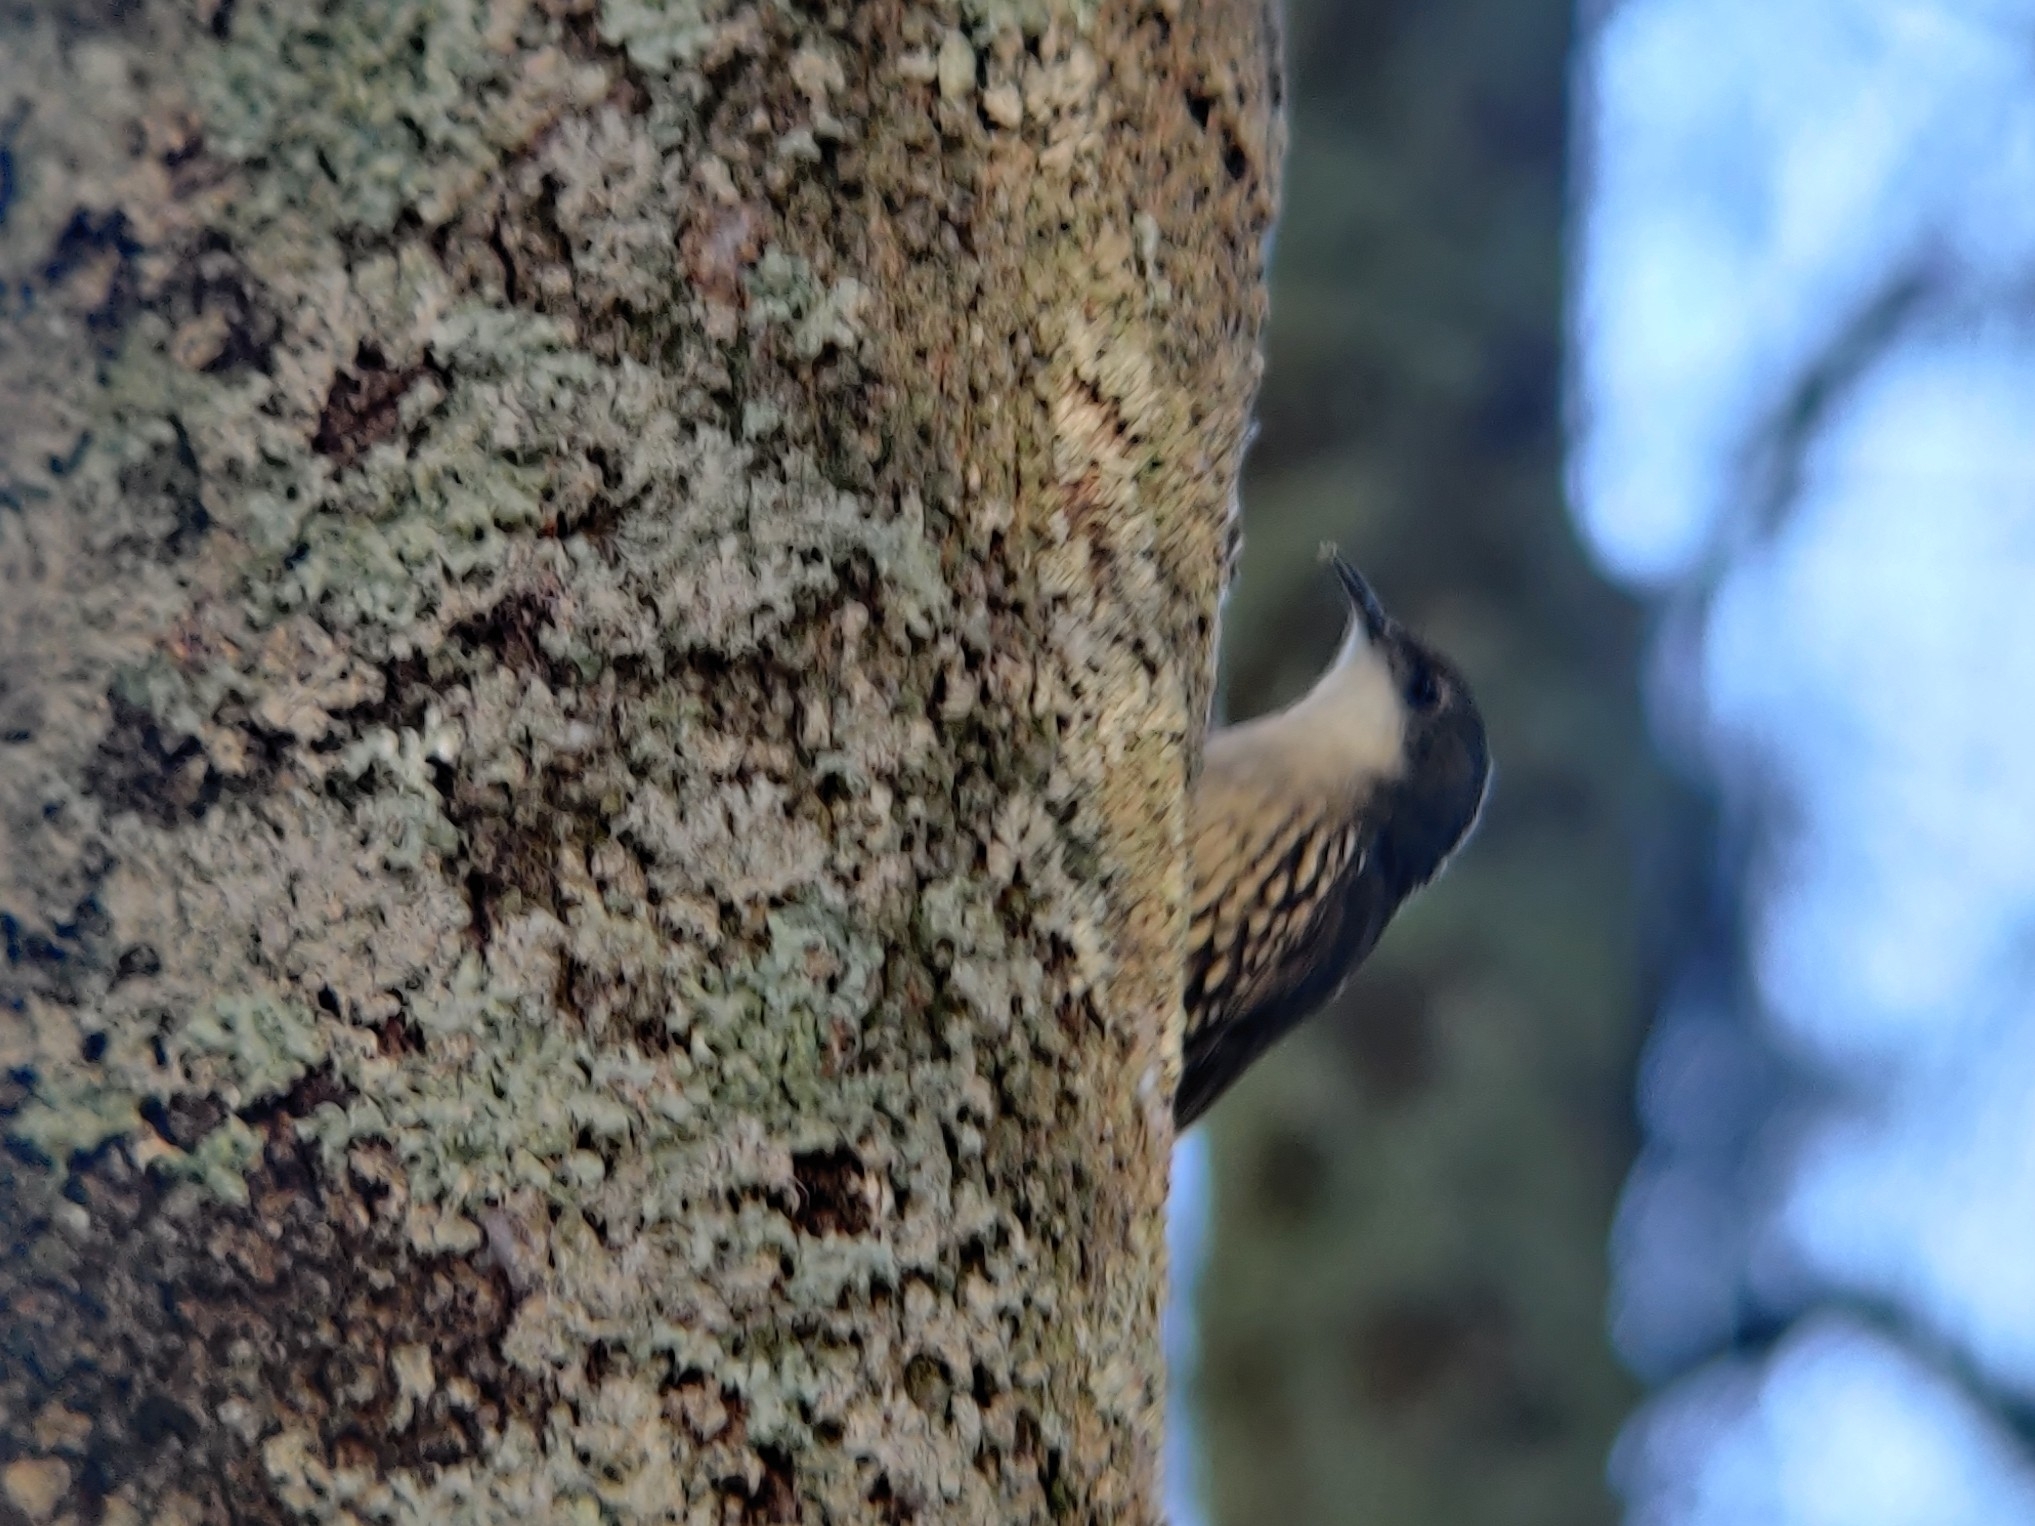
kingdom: Animalia
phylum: Chordata
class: Aves
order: Passeriformes
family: Climacteridae
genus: Cormobates
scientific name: Cormobates leucophaea
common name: White-throated treecreeper
